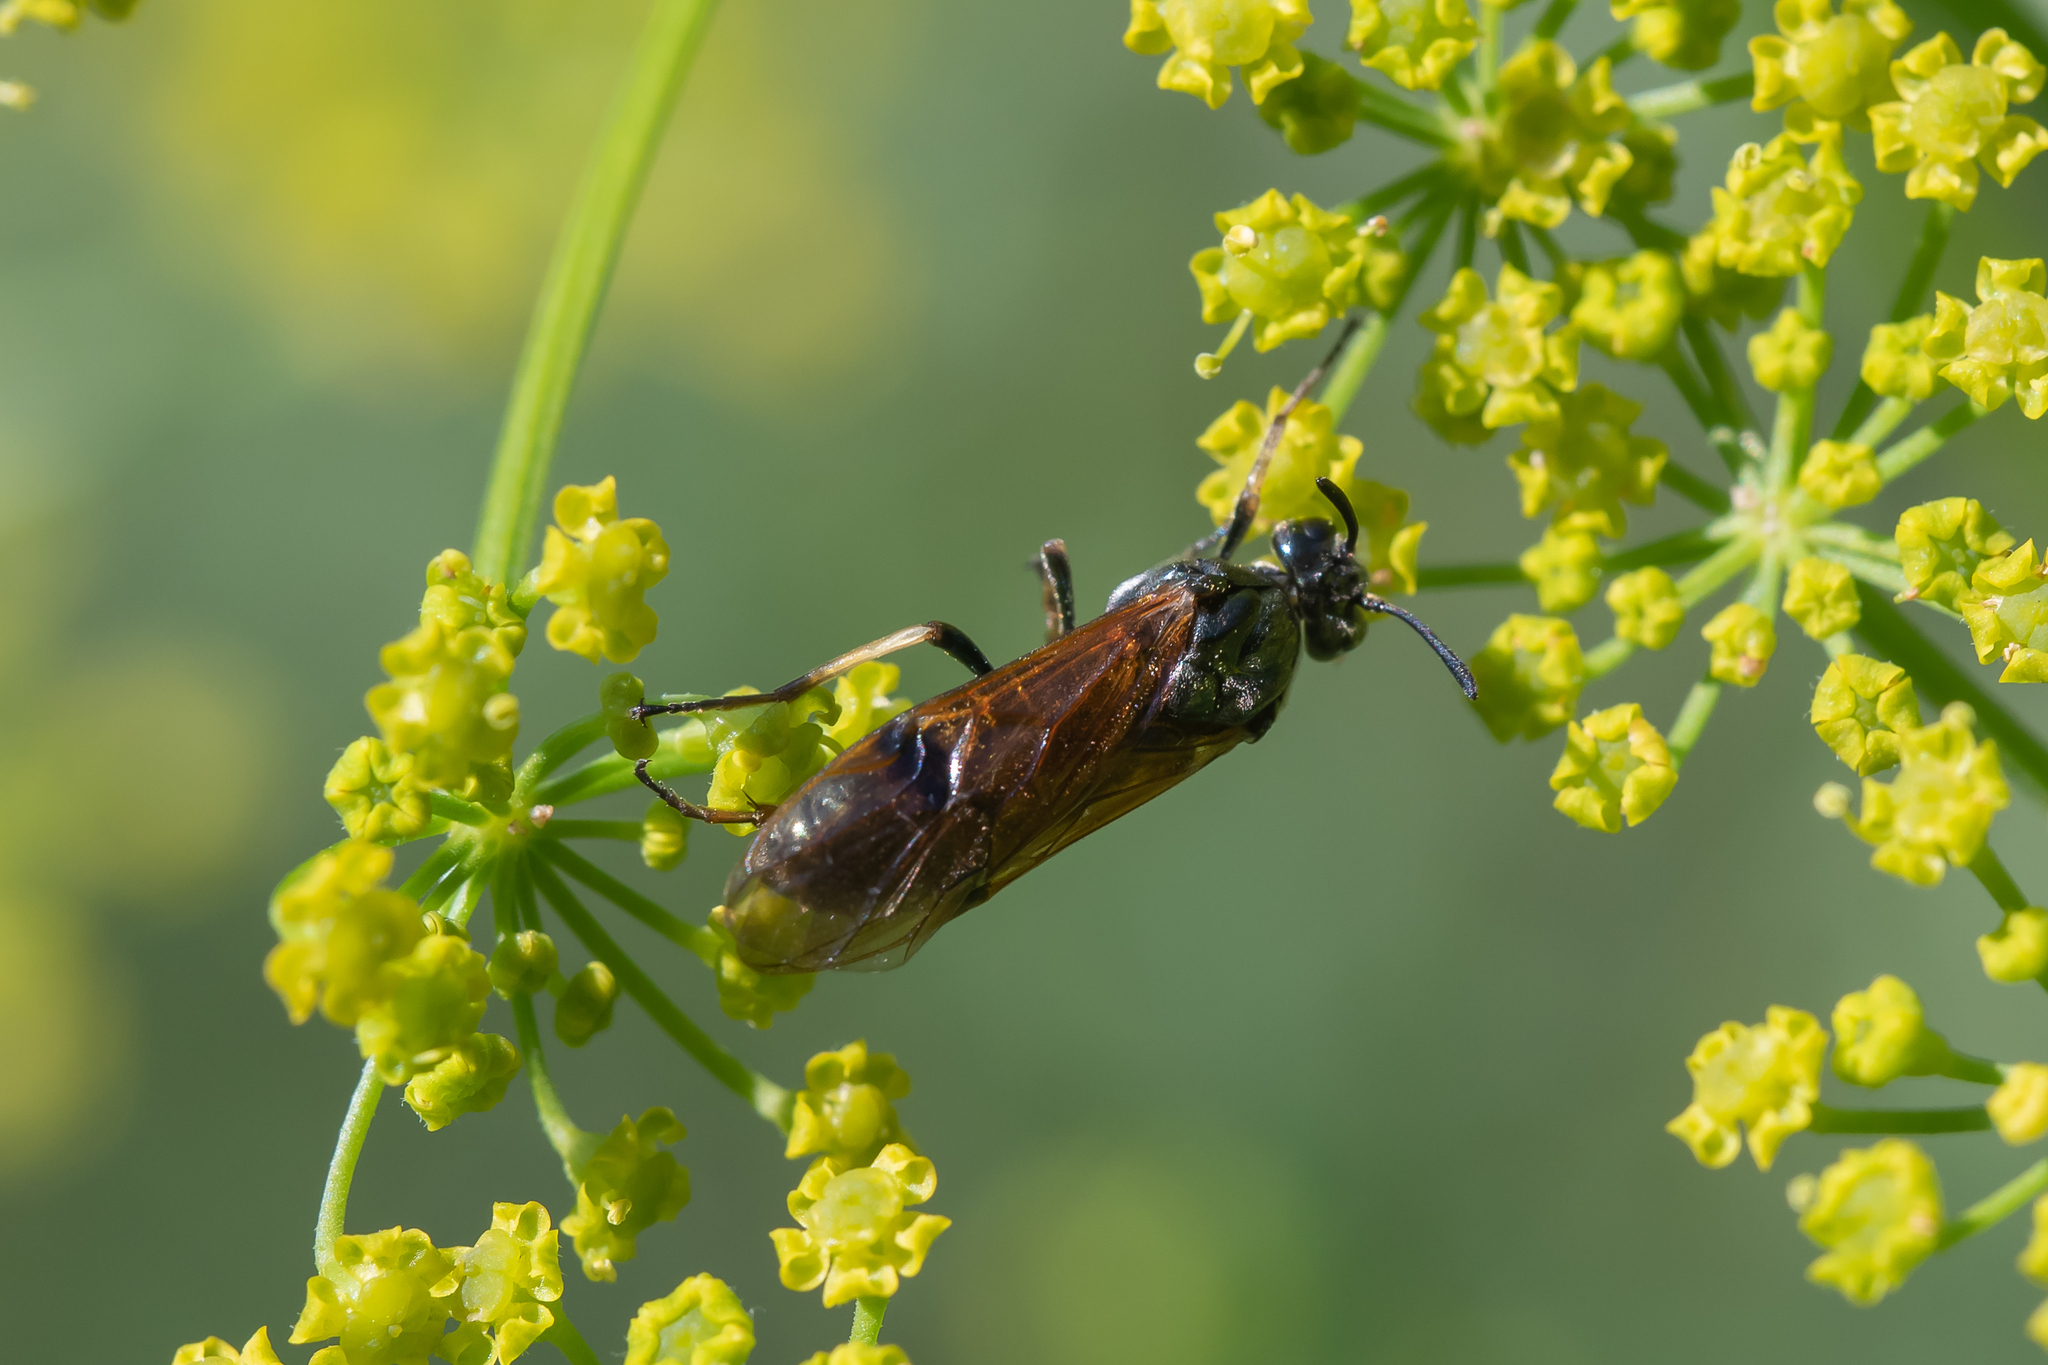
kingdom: Animalia
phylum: Arthropoda
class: Insecta
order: Hymenoptera
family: Argidae
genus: Arge
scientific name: Arge ustulata
